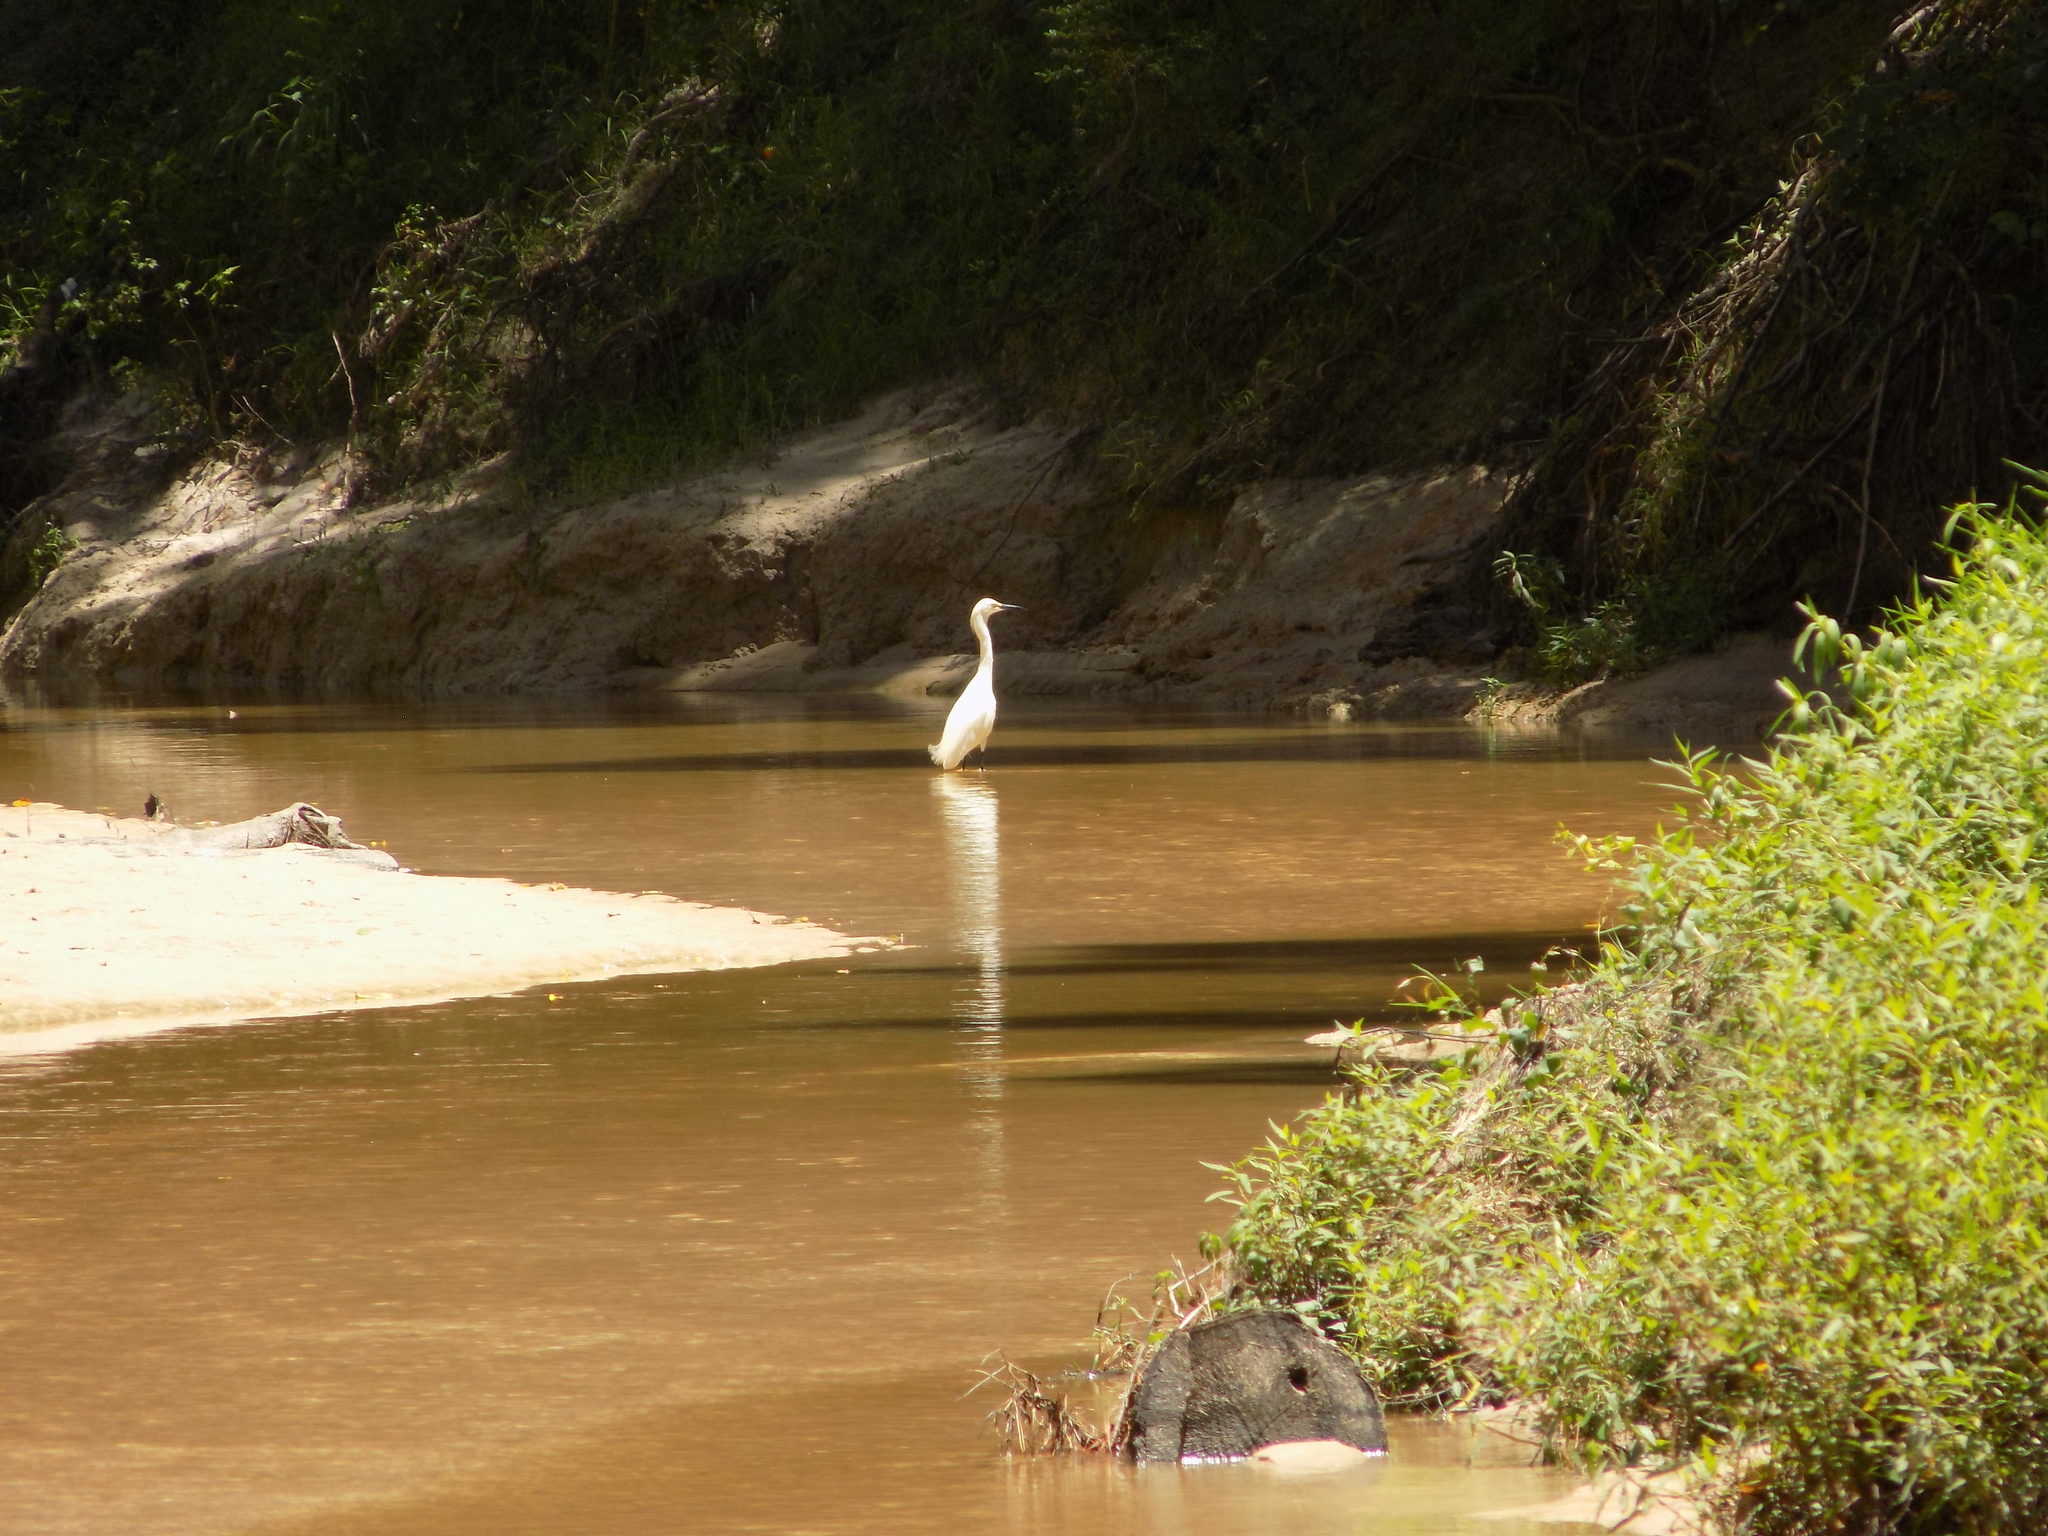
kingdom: Animalia
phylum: Chordata
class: Aves
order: Pelecaniformes
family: Ardeidae
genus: Egretta
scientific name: Egretta thula
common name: Snowy egret
